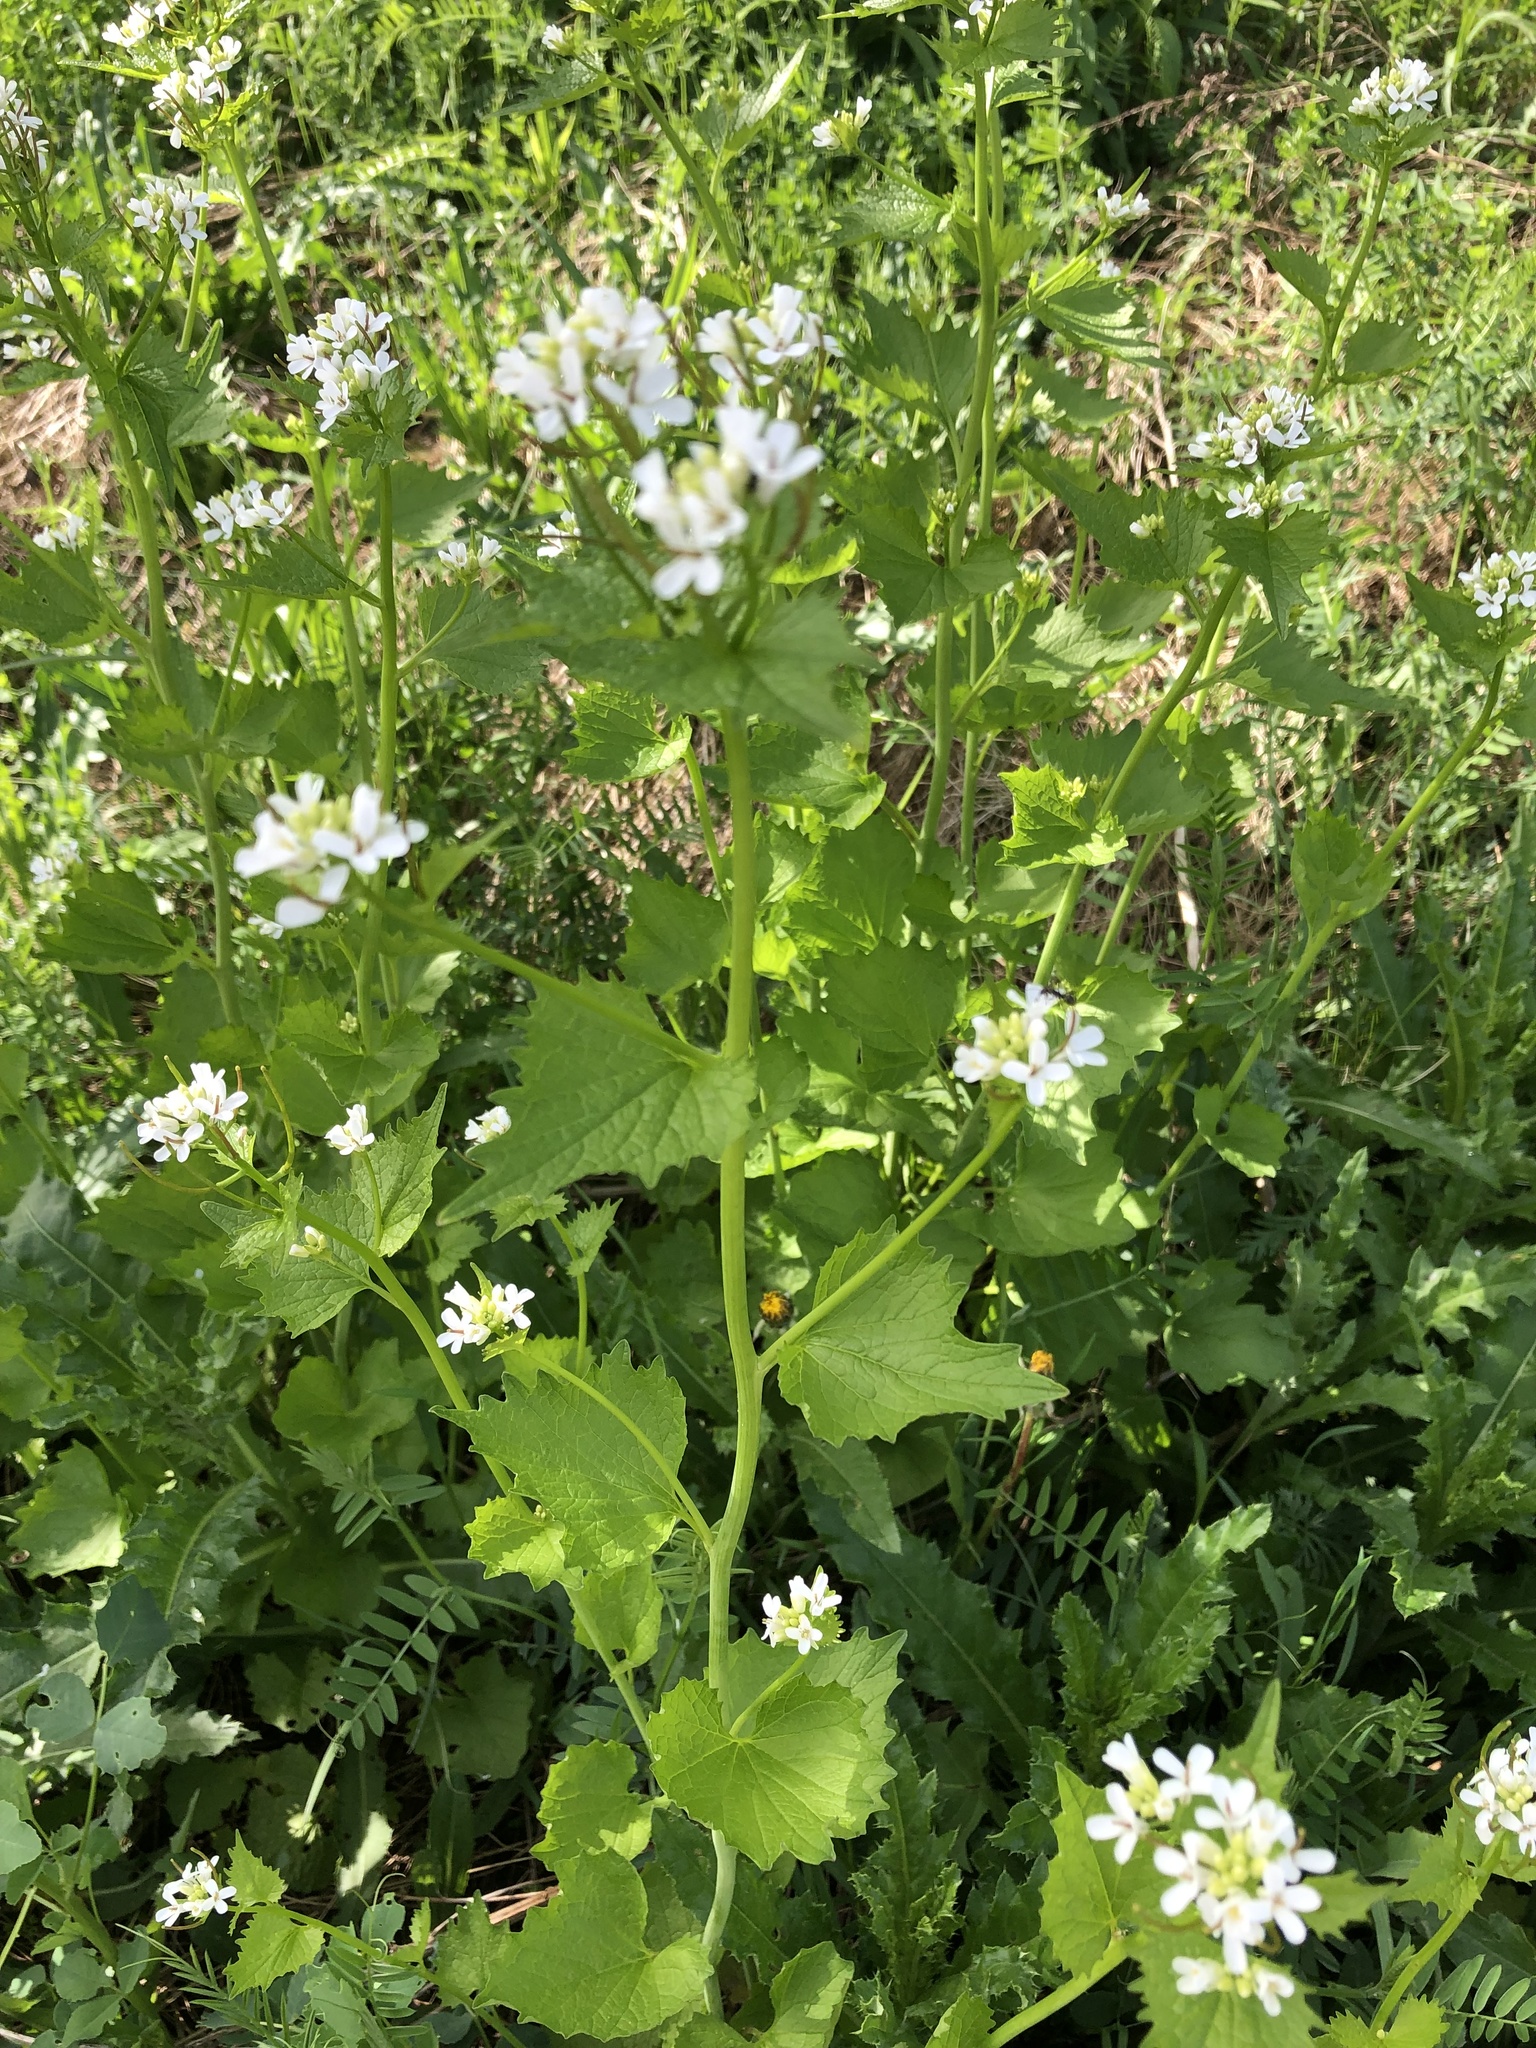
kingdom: Plantae
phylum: Tracheophyta
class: Magnoliopsida
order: Brassicales
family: Brassicaceae
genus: Alliaria
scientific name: Alliaria petiolata
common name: Garlic mustard
